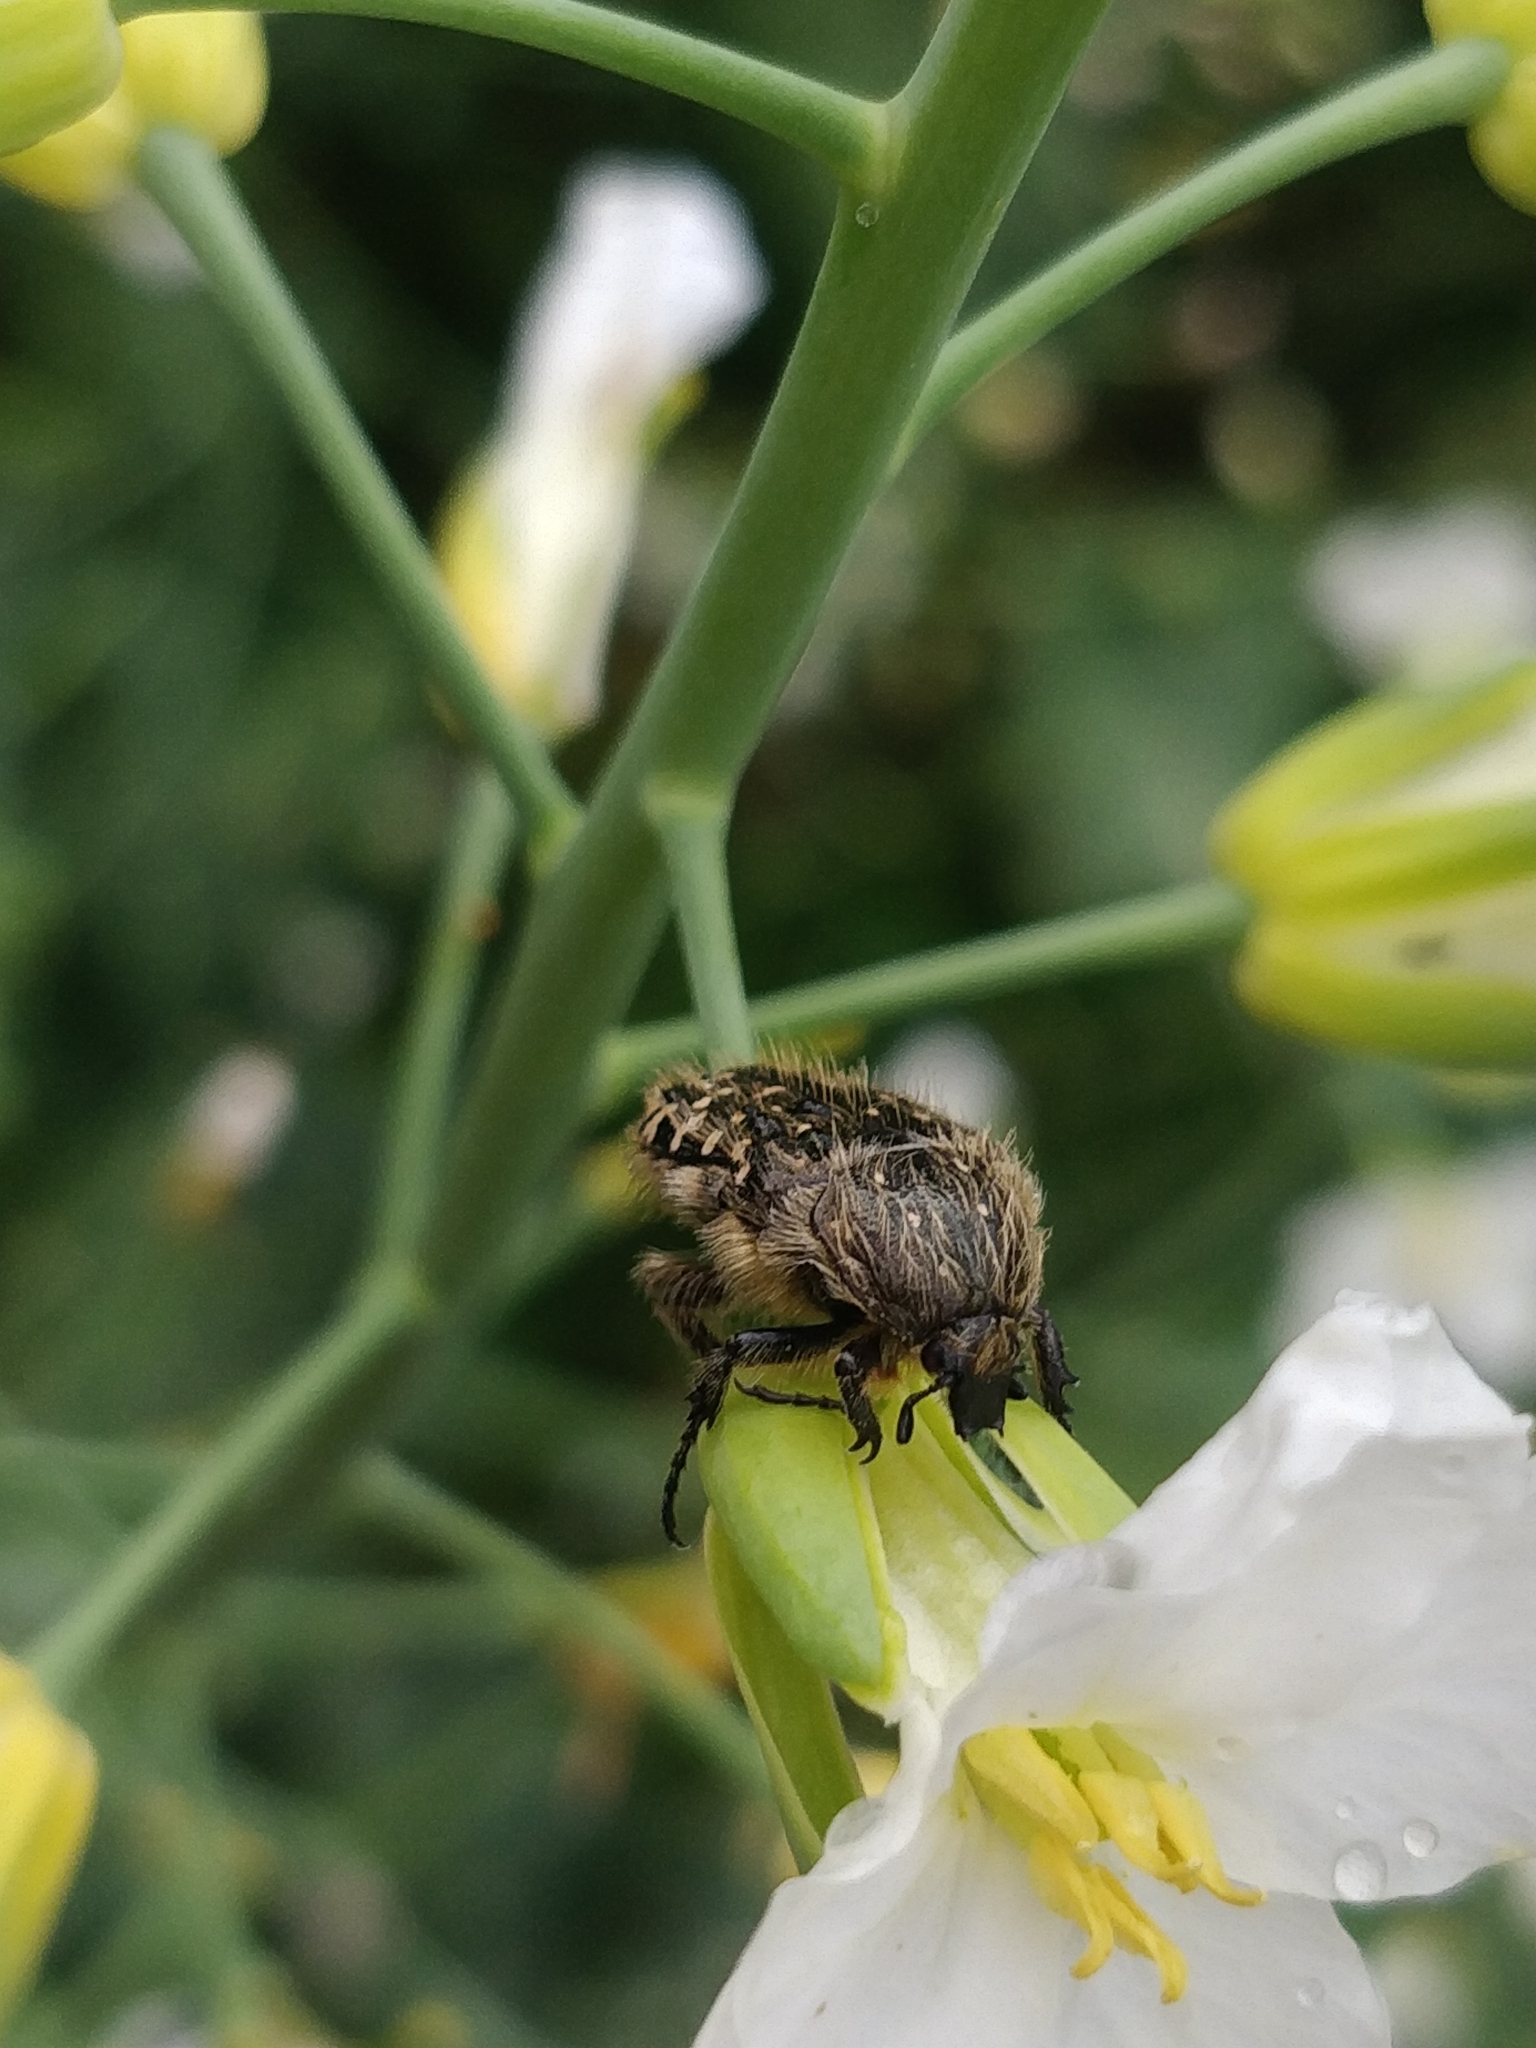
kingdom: Animalia
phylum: Arthropoda
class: Insecta
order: Coleoptera
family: Scarabaeidae
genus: Oxythyrea
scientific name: Oxythyrea funesta
